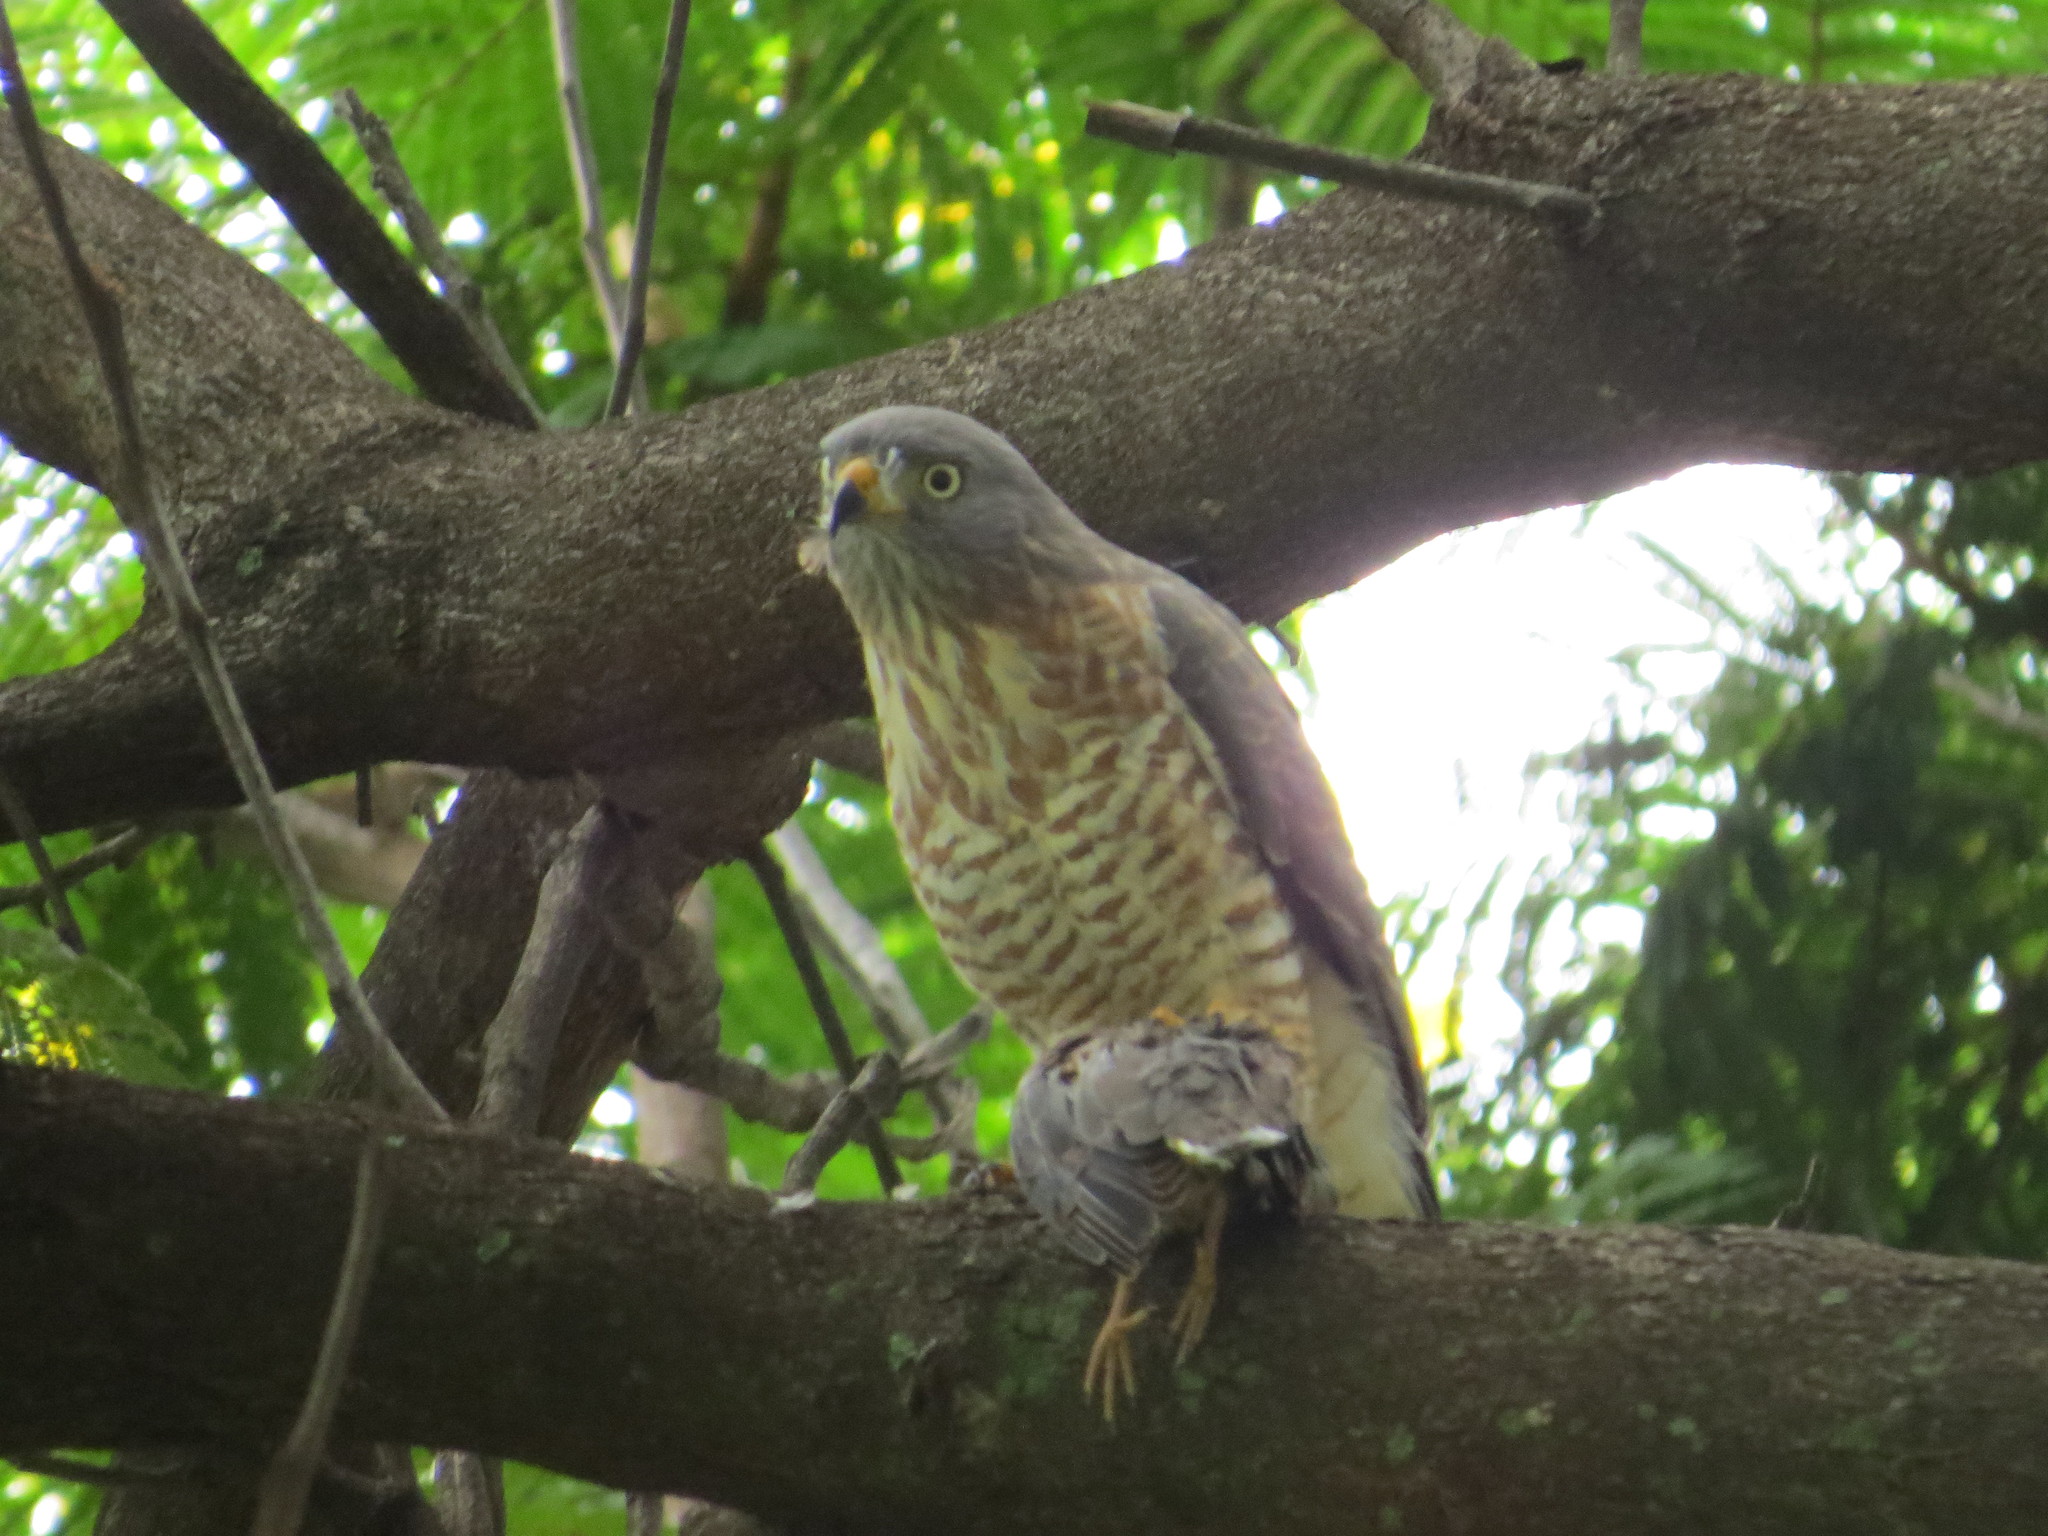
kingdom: Animalia
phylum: Chordata
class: Aves
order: Accipitriformes
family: Accipitridae
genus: Rupornis
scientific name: Rupornis magnirostris
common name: Roadside hawk
